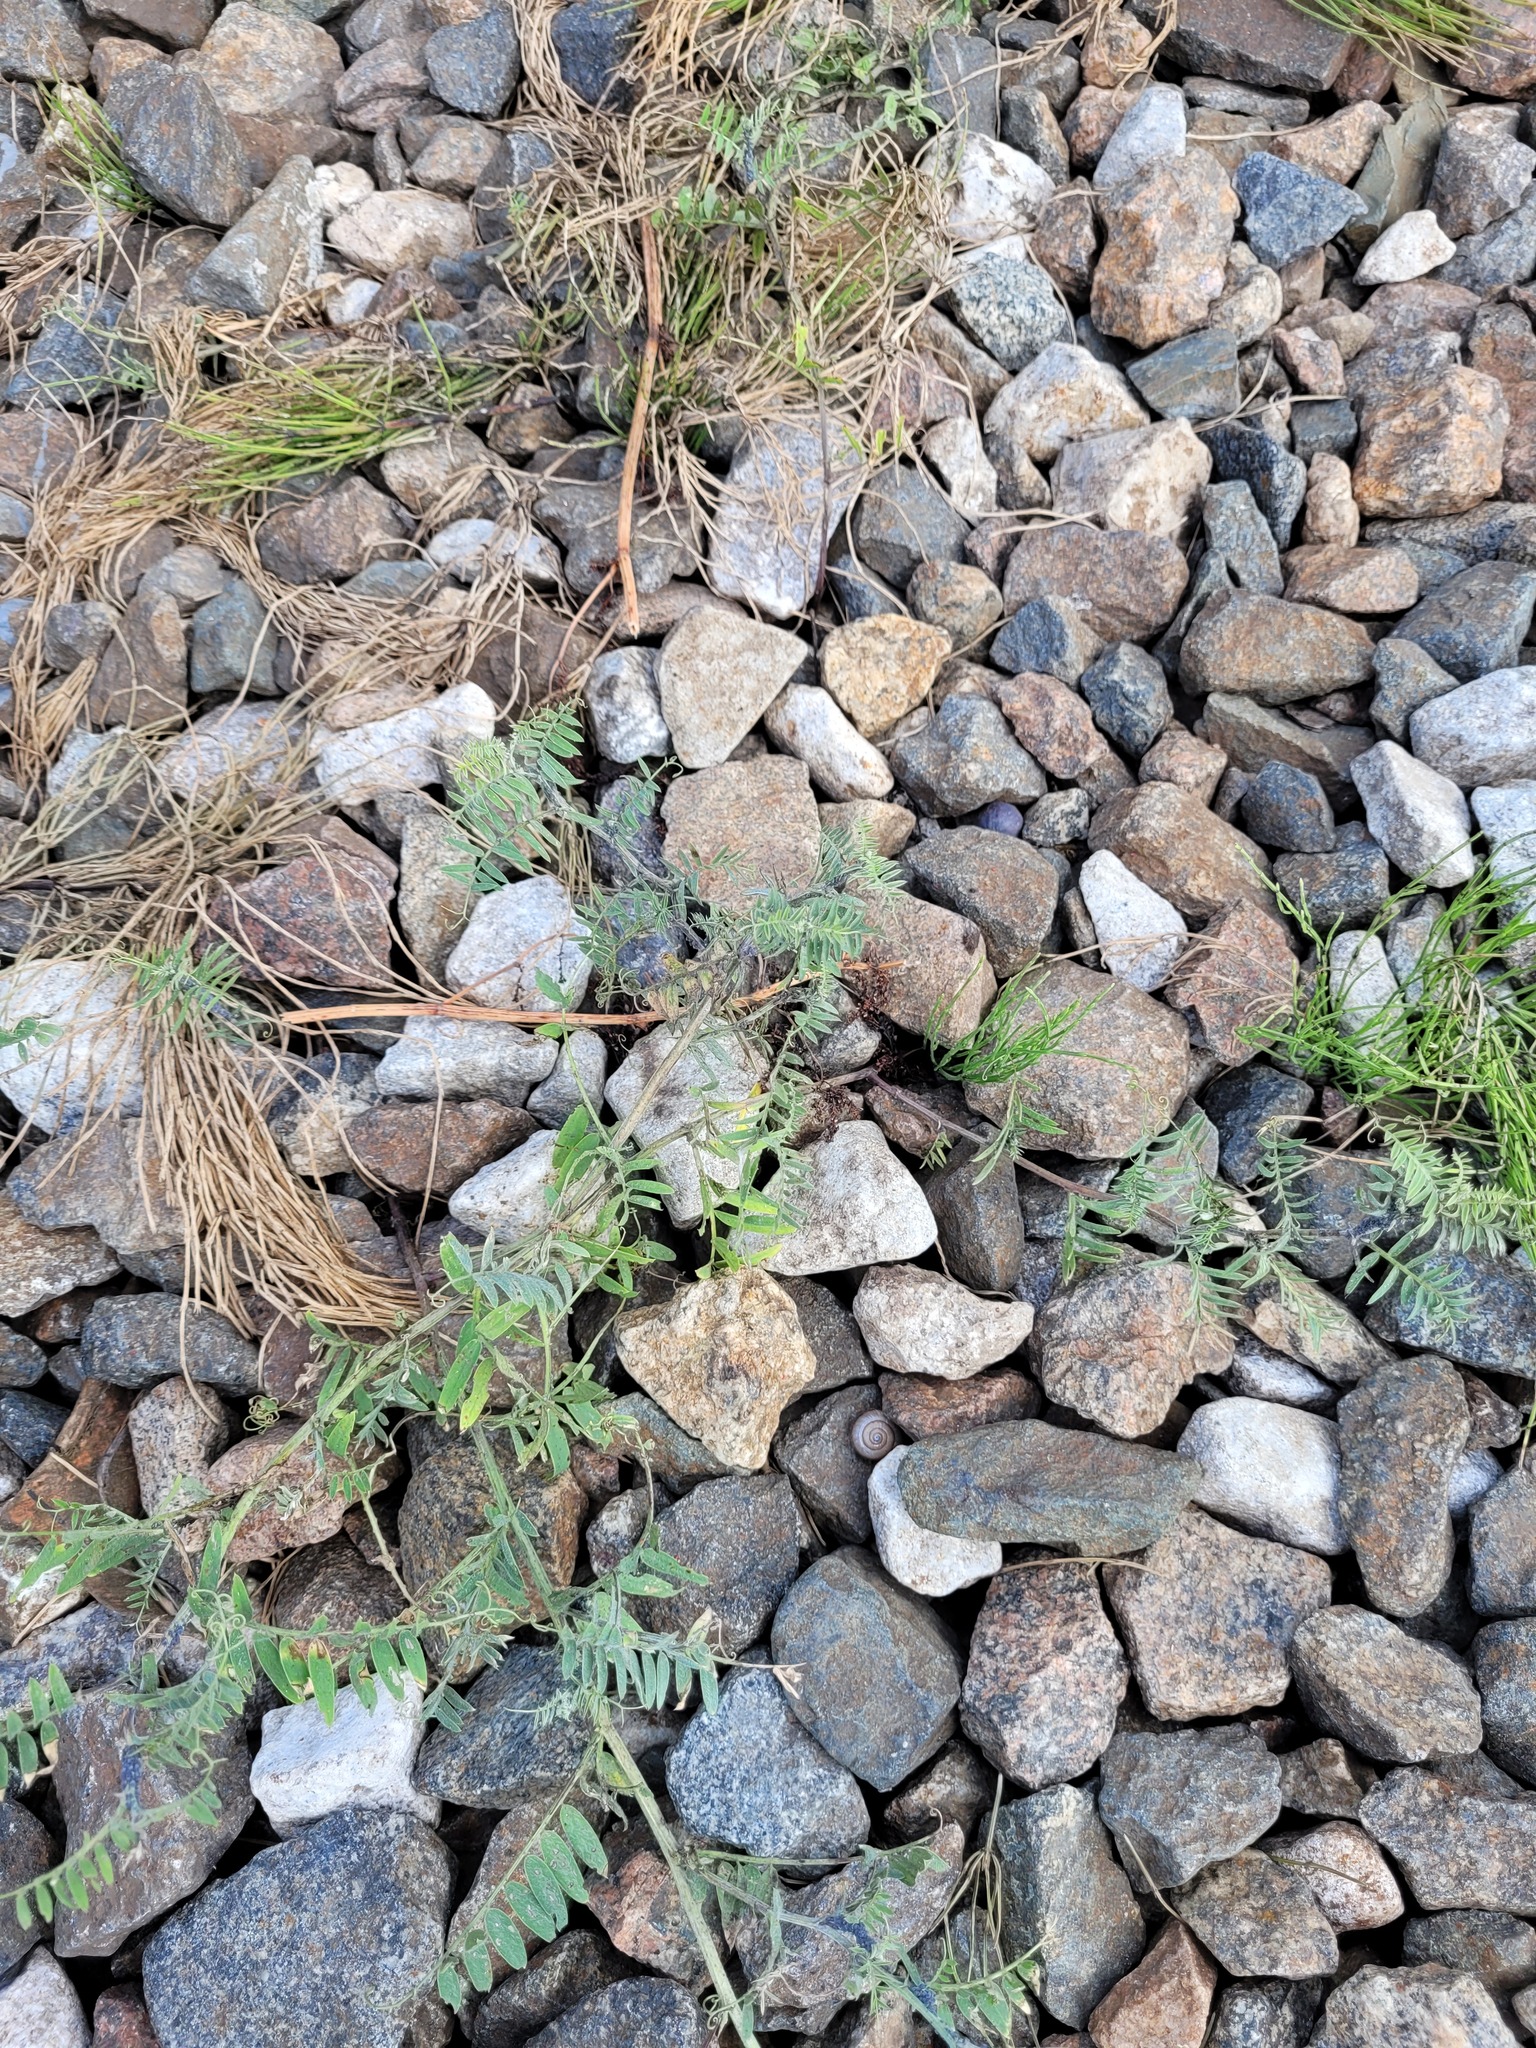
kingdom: Plantae
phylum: Tracheophyta
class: Magnoliopsida
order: Fabales
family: Fabaceae
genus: Vicia
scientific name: Vicia cracca
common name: Bird vetch
